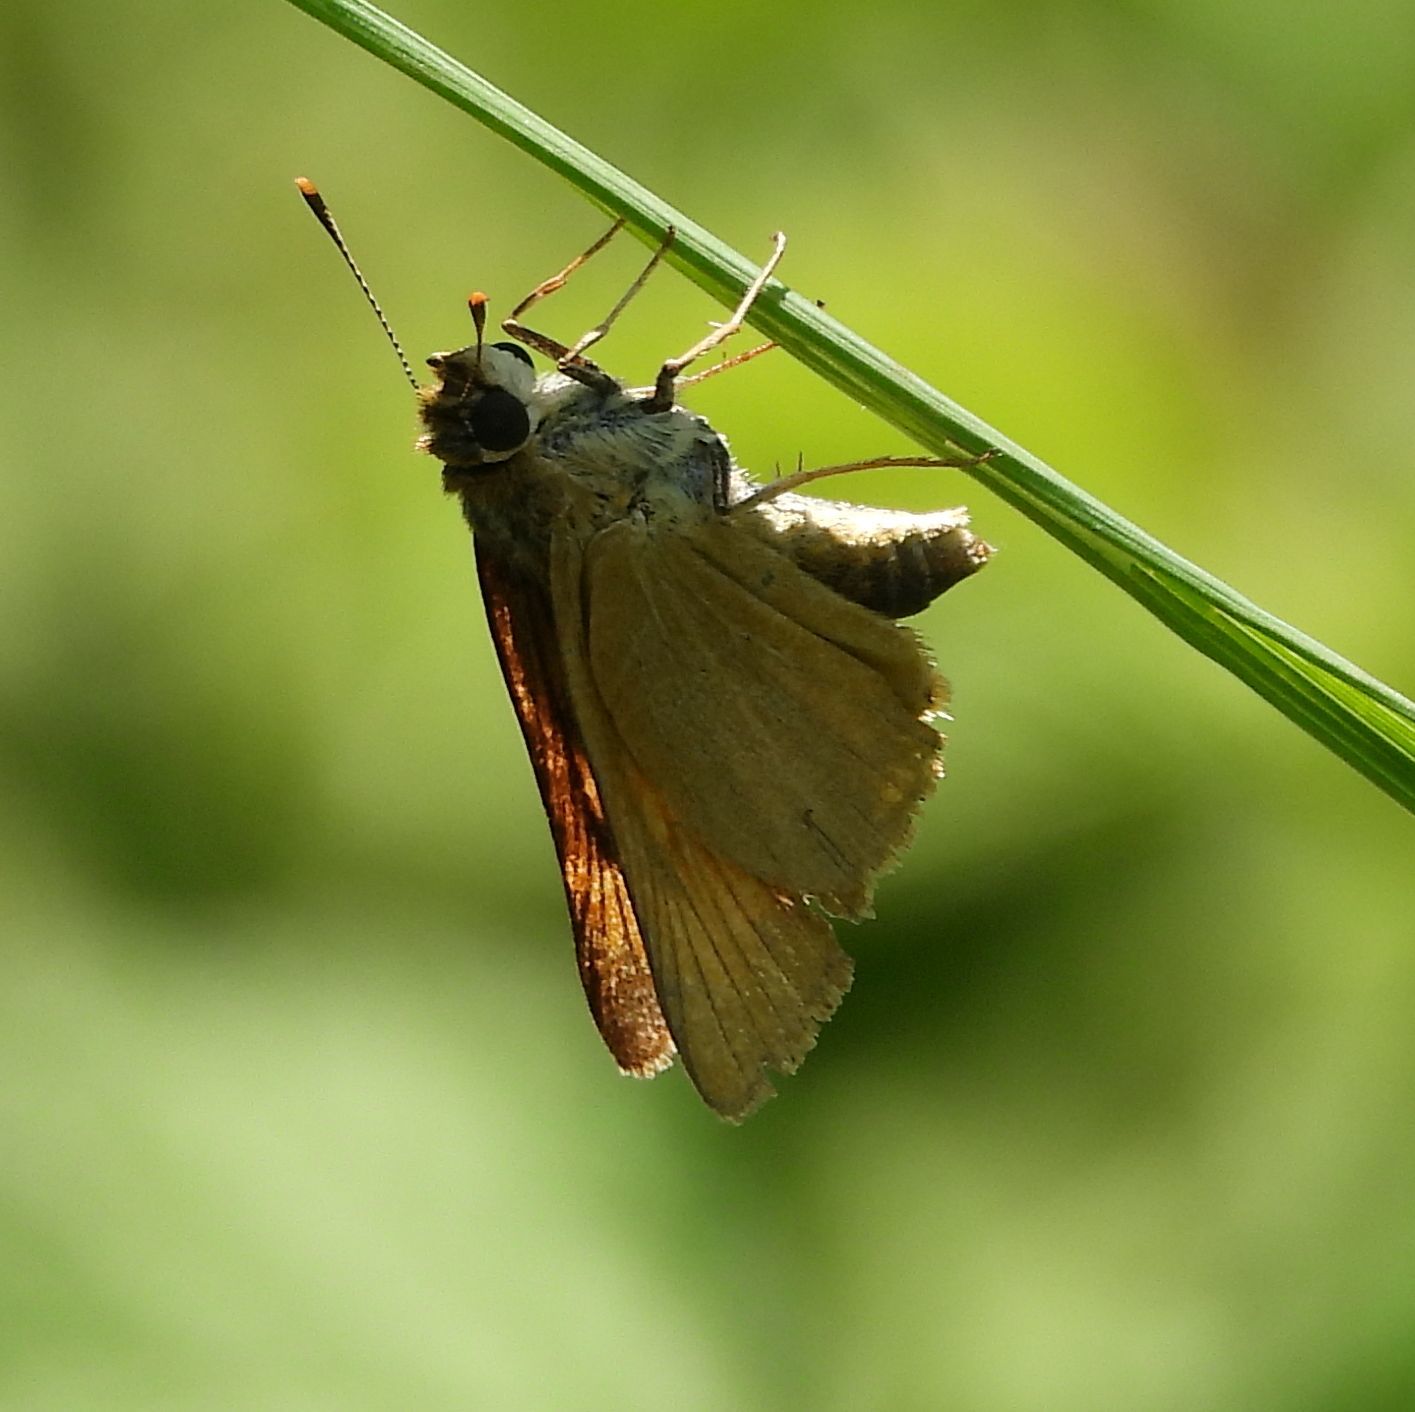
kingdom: Animalia
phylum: Arthropoda
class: Insecta
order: Lepidoptera
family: Hesperiidae
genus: Atrytone
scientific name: Atrytone delaware
